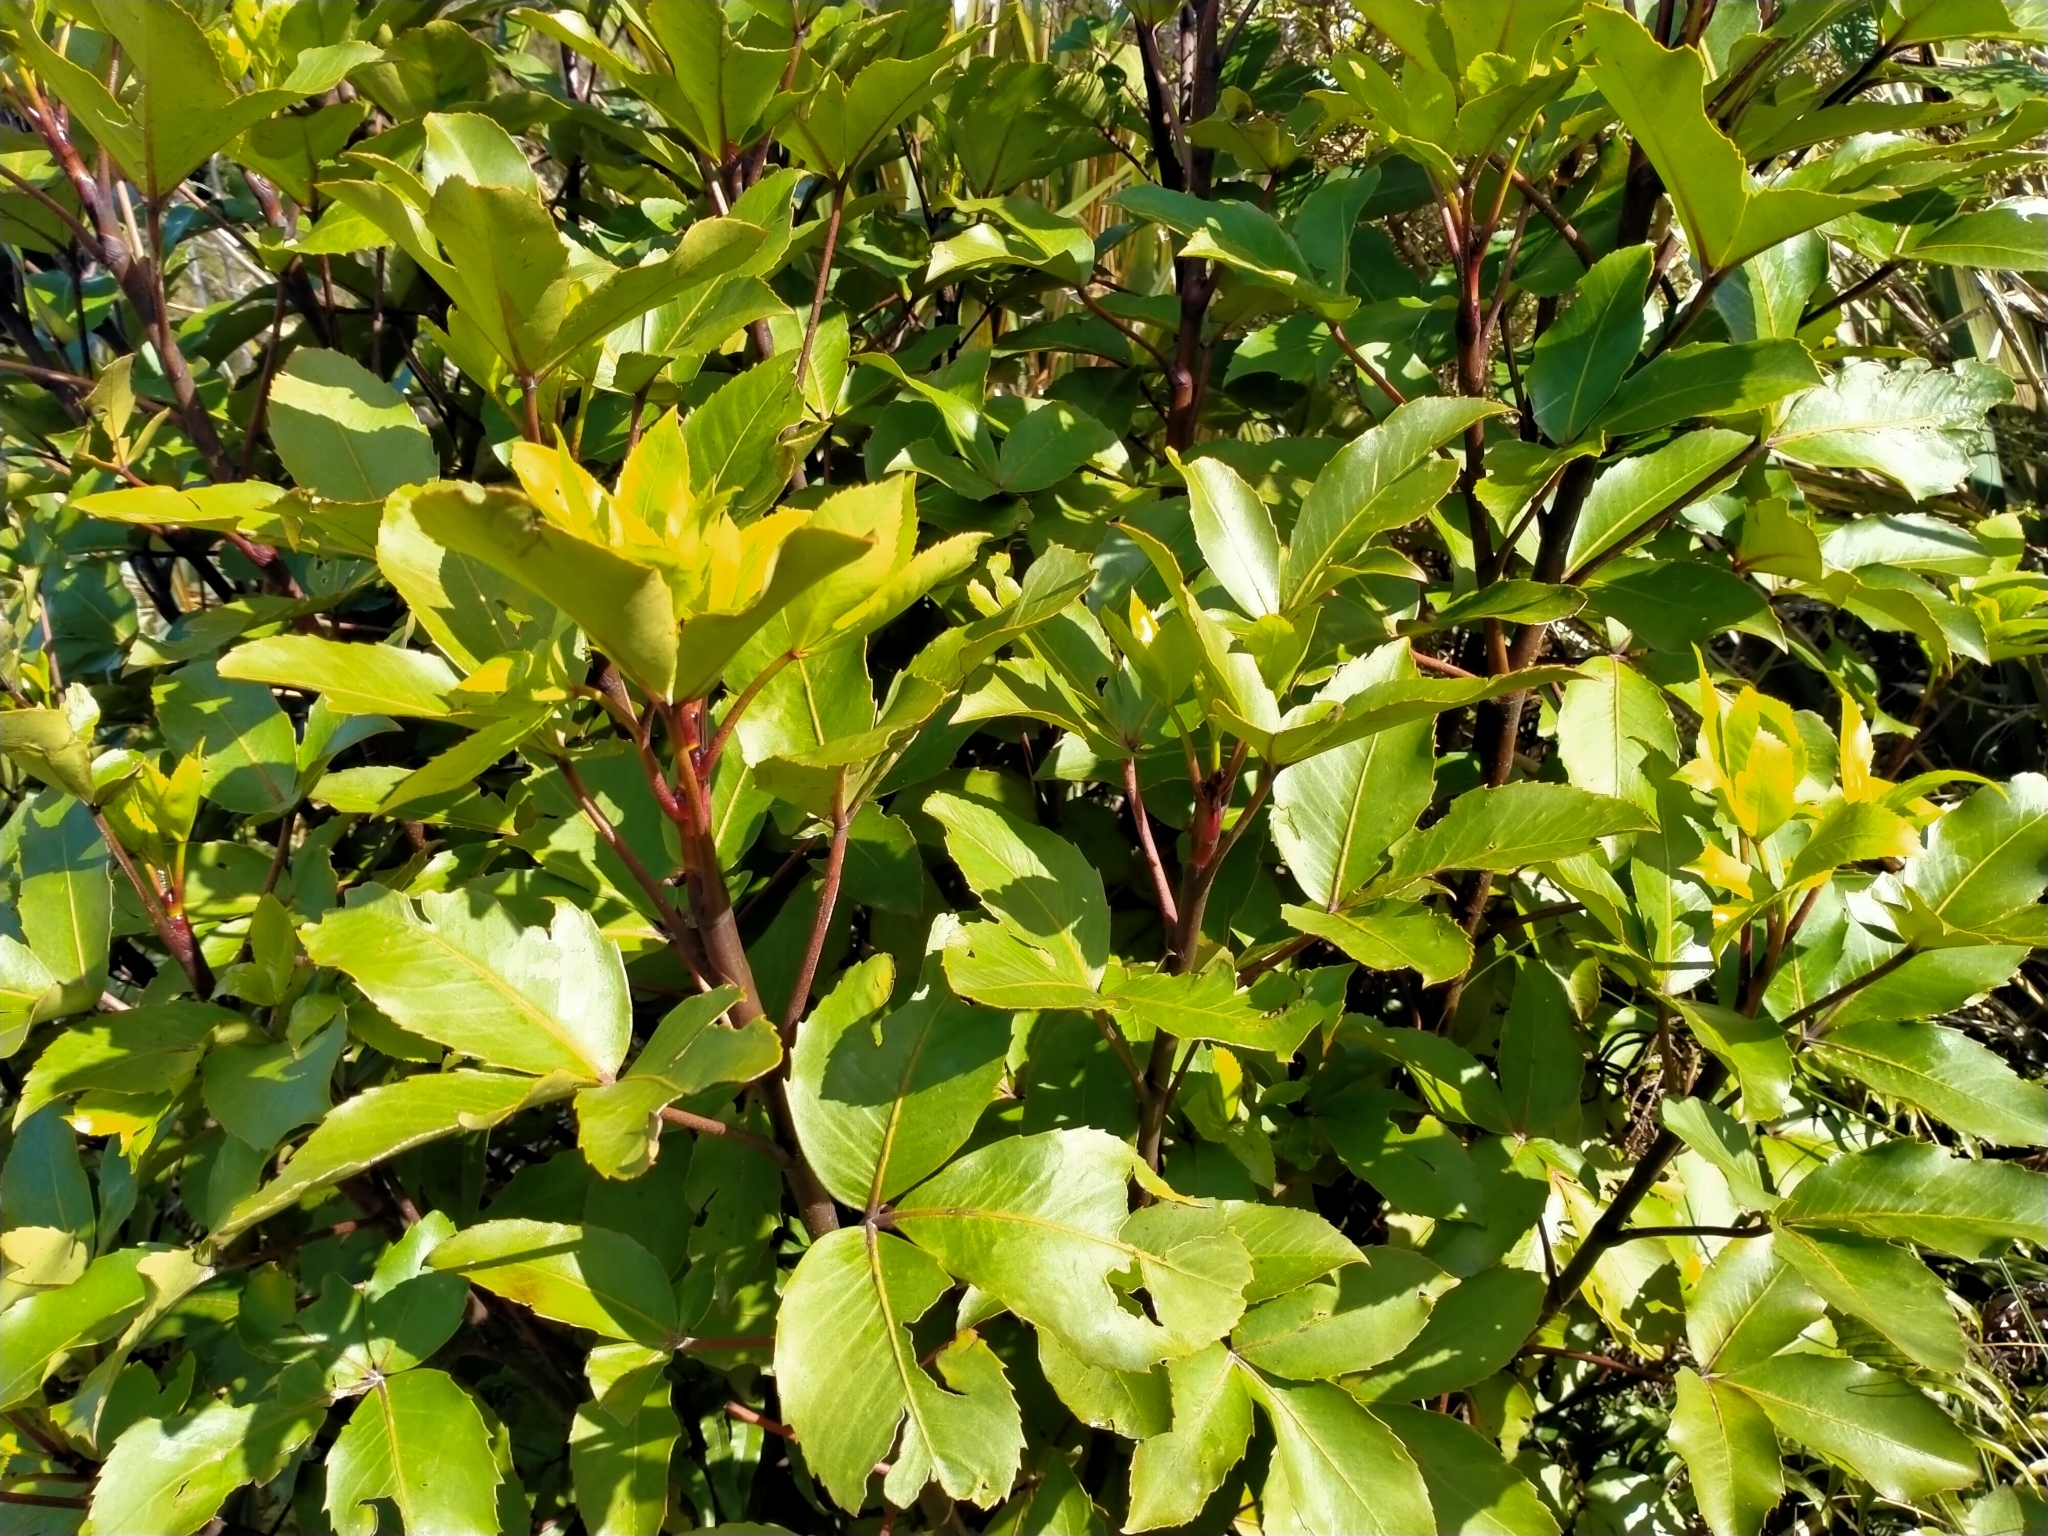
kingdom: Plantae
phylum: Tracheophyta
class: Magnoliopsida
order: Apiales
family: Araliaceae
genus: Neopanax
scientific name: Neopanax colensoi
